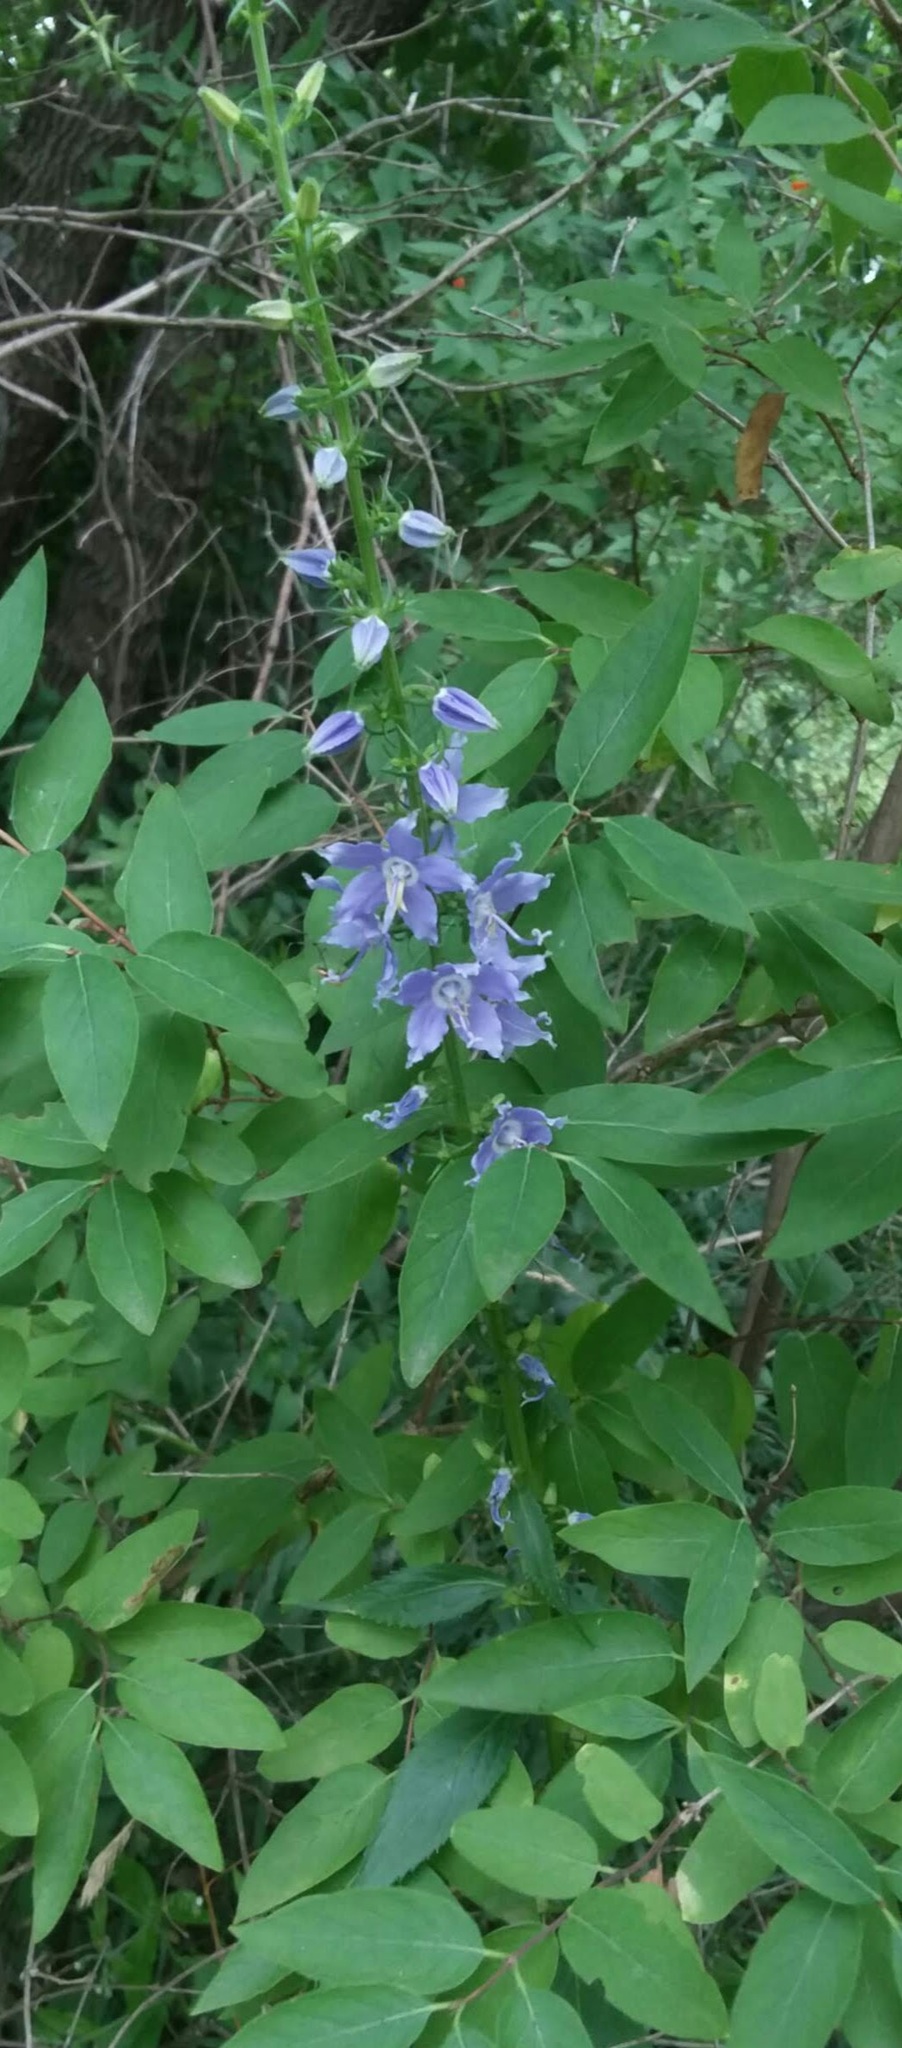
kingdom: Plantae
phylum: Tracheophyta
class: Magnoliopsida
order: Asterales
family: Campanulaceae
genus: Campanulastrum
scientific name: Campanulastrum americanum
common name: American bellflower
